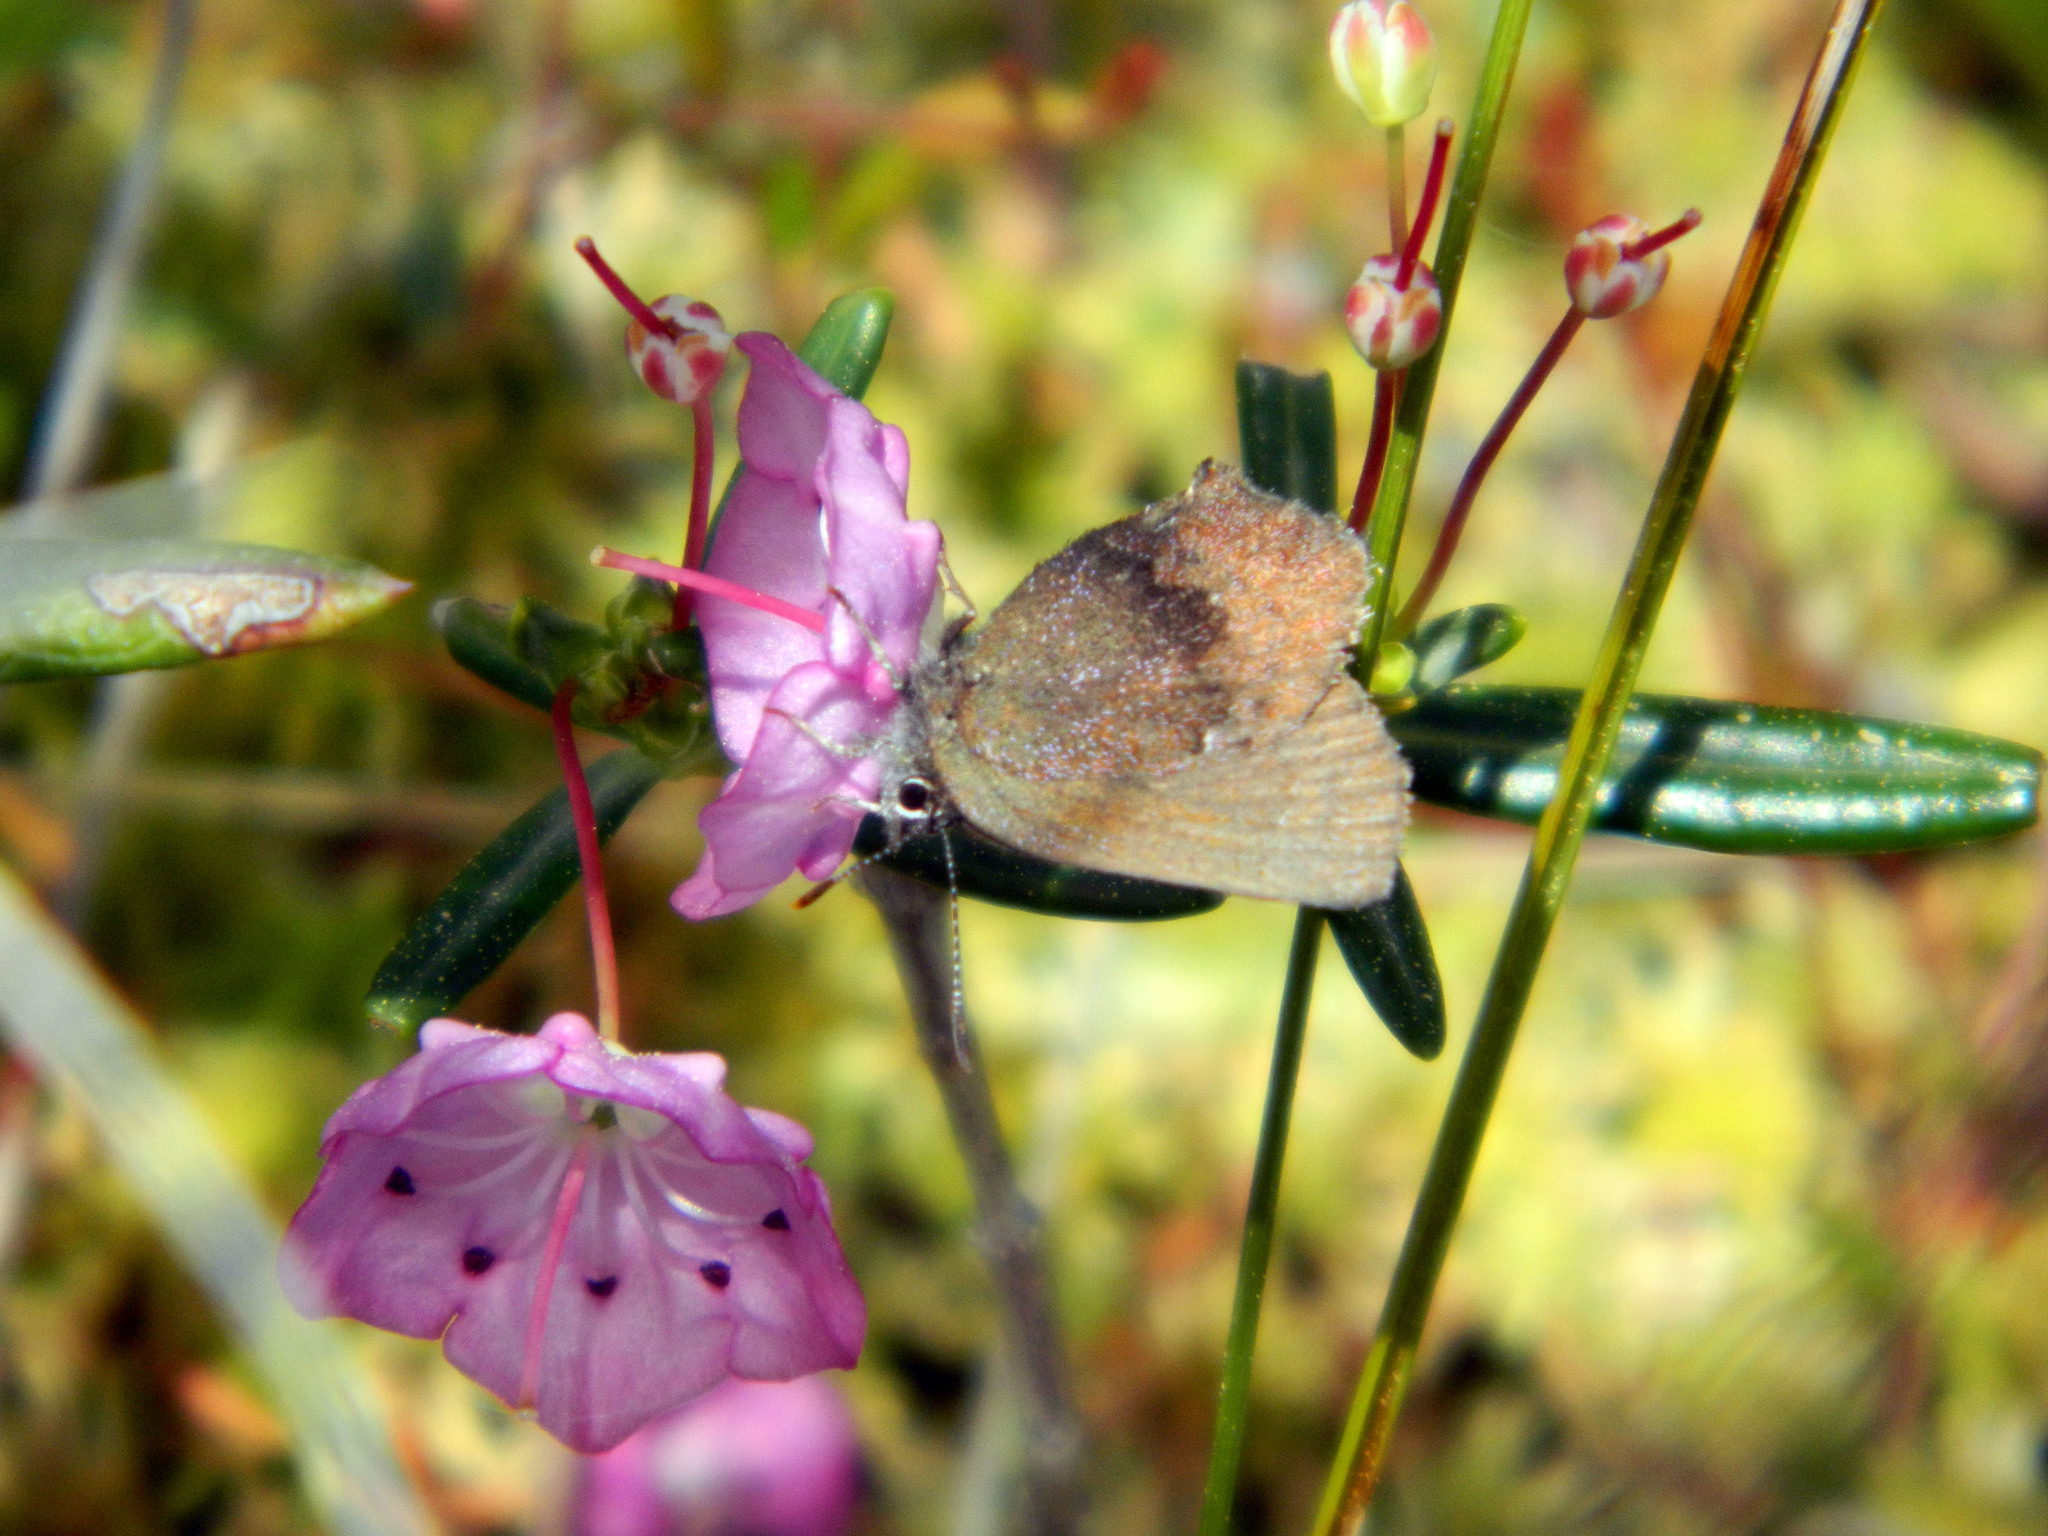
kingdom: Animalia
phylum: Arthropoda
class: Insecta
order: Lepidoptera
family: Lycaenidae
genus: Incisalia
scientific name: Incisalia irioides
